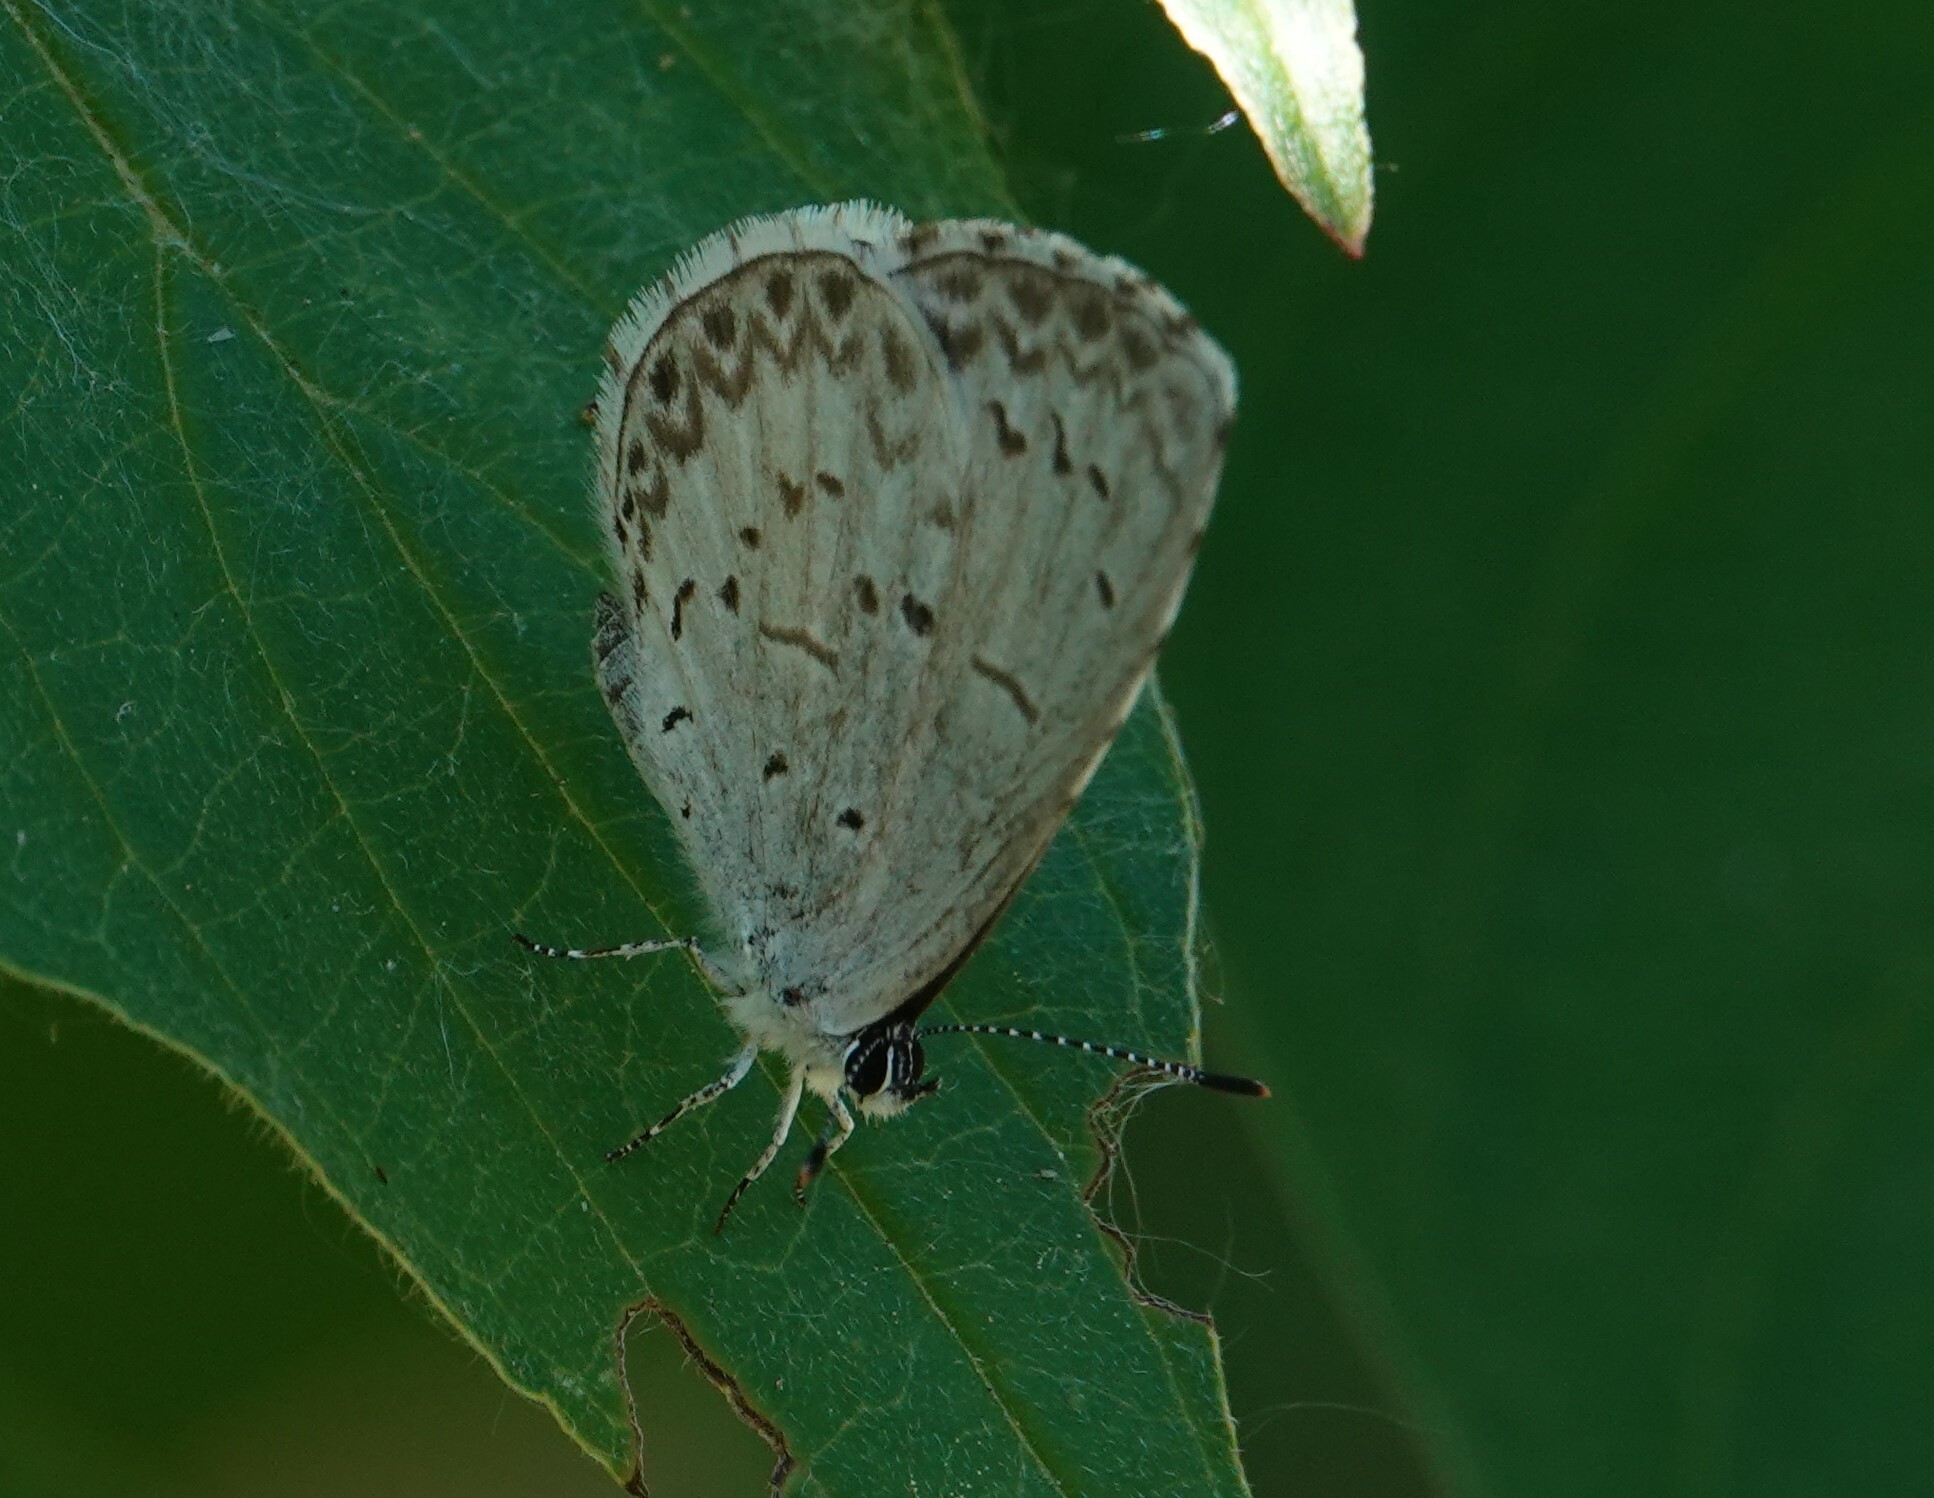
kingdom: Animalia
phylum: Arthropoda
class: Insecta
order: Lepidoptera
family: Lycaenidae
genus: Celastrina
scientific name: Celastrina lucia
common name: Lucia azure
